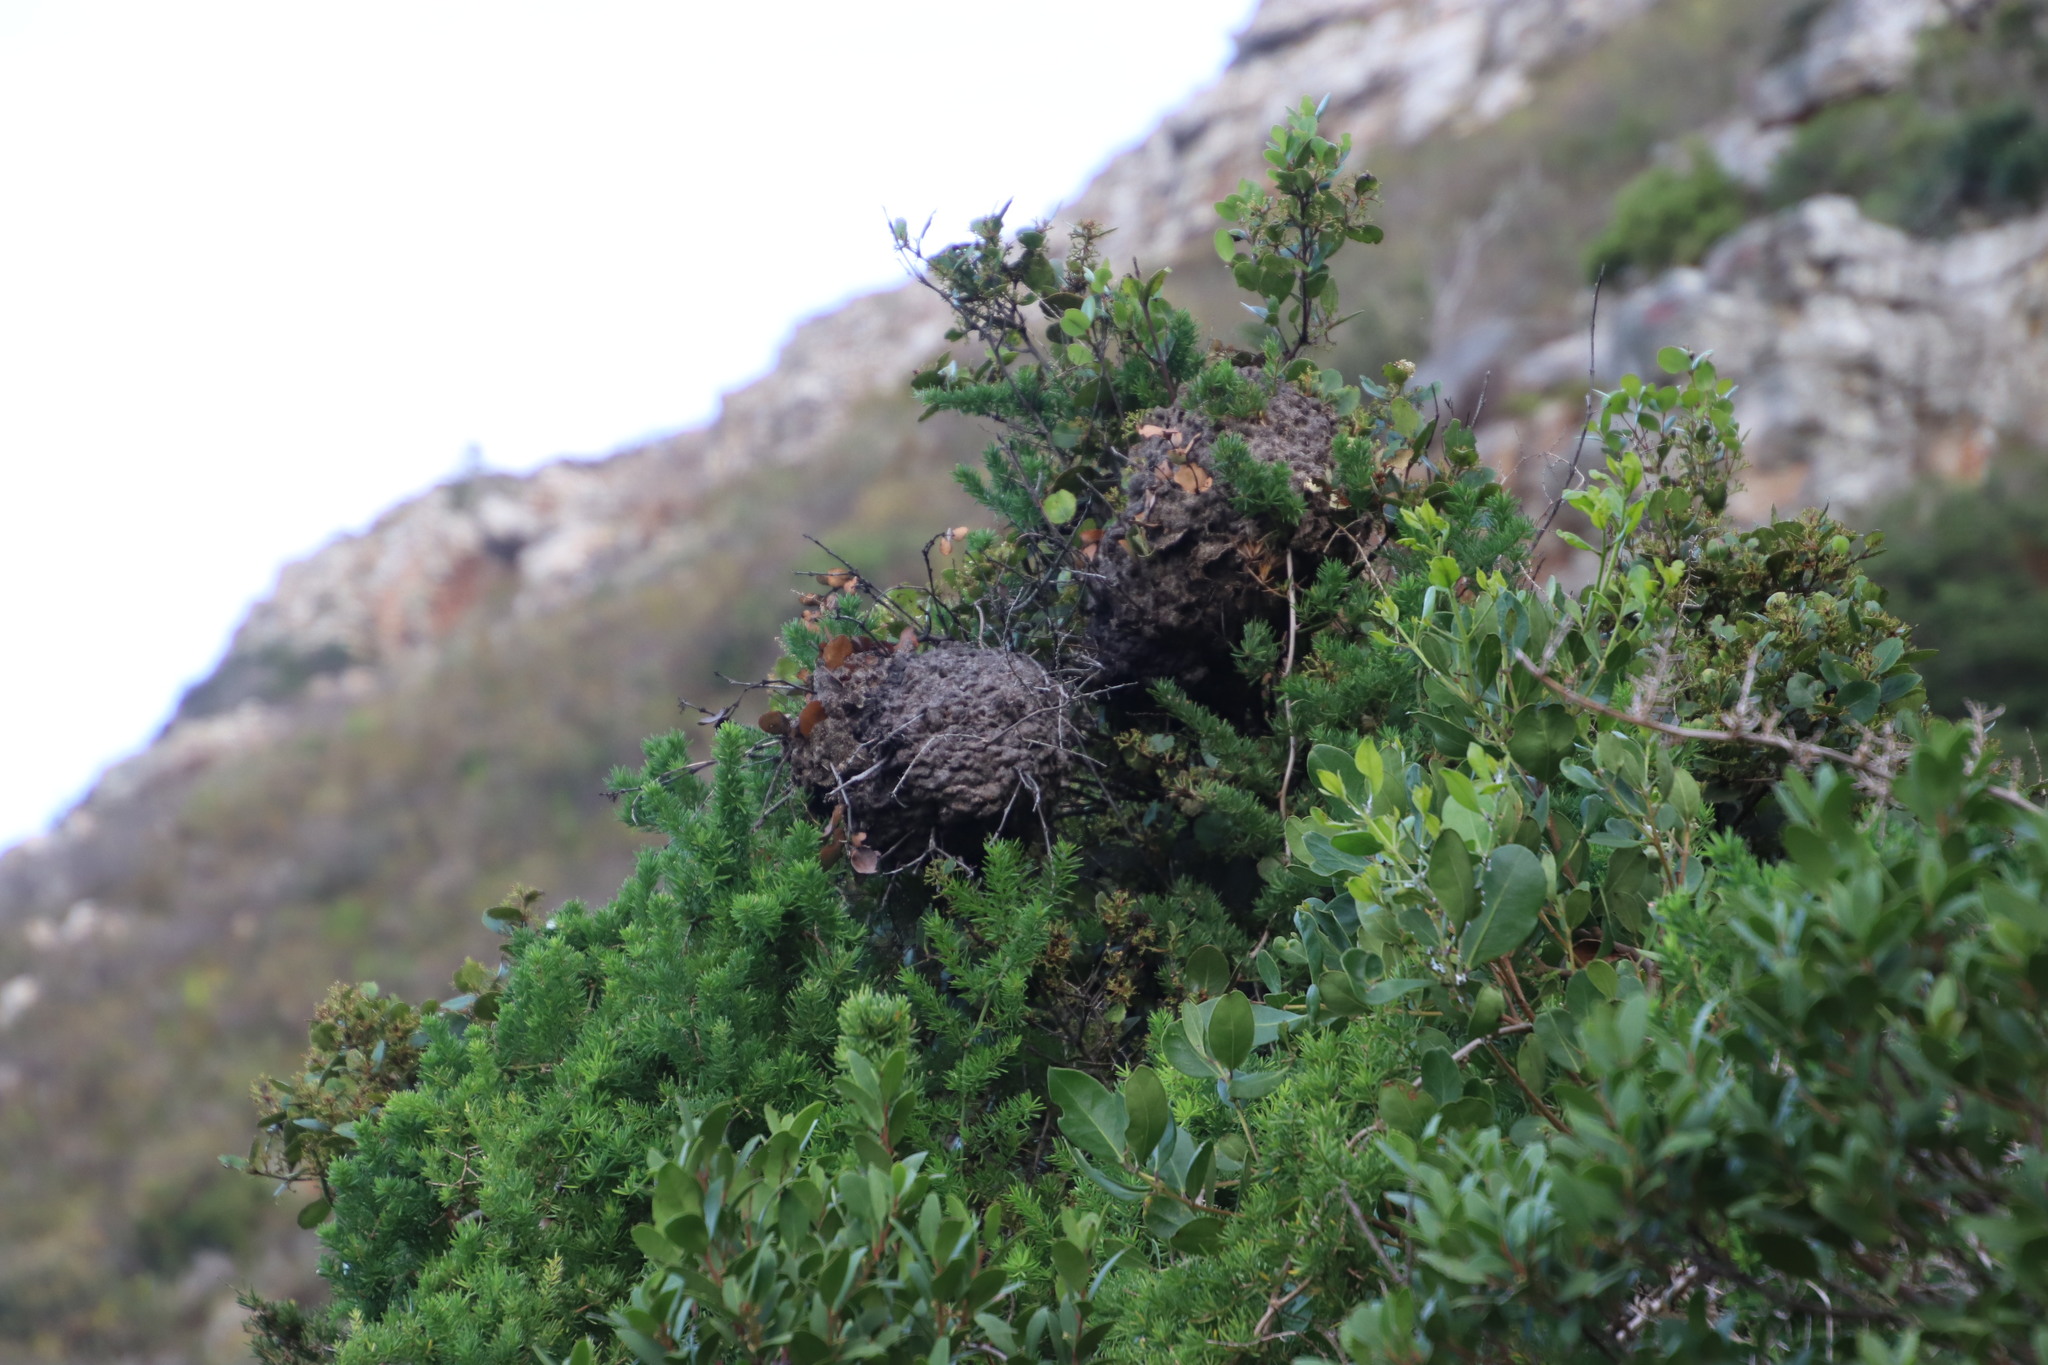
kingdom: Animalia
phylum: Arthropoda
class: Insecta
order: Hymenoptera
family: Formicidae
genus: Crematogaster
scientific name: Crematogaster peringueyi
